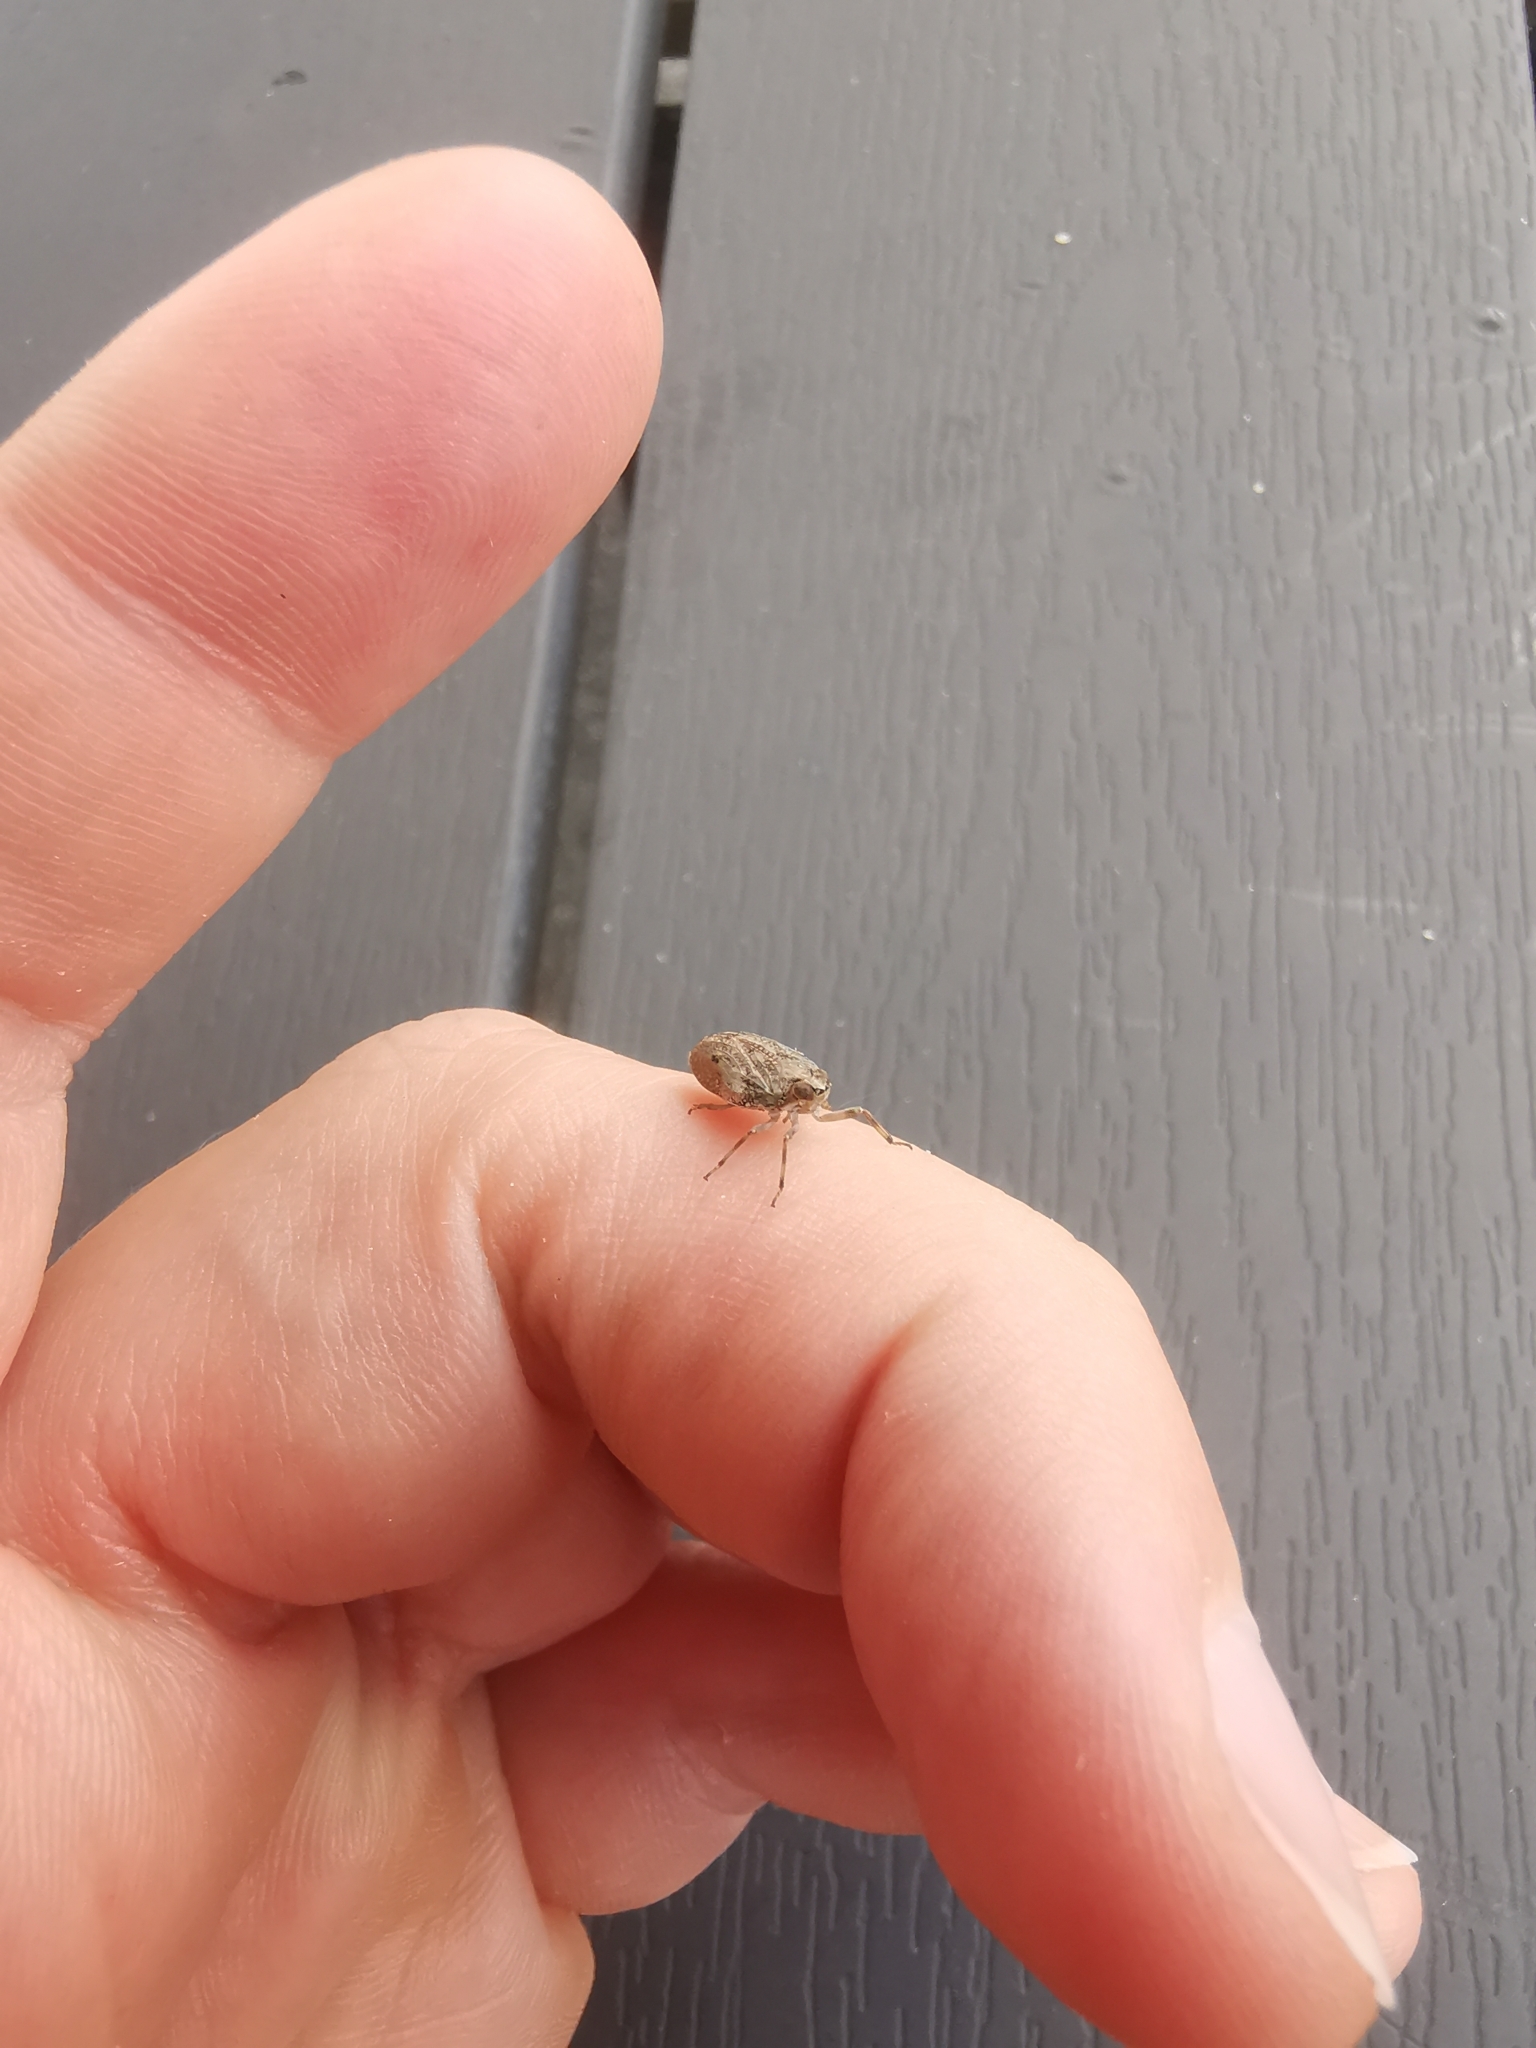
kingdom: Animalia
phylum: Arthropoda
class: Insecta
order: Hemiptera
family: Issidae
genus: Issus
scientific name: Issus coleoptratus
